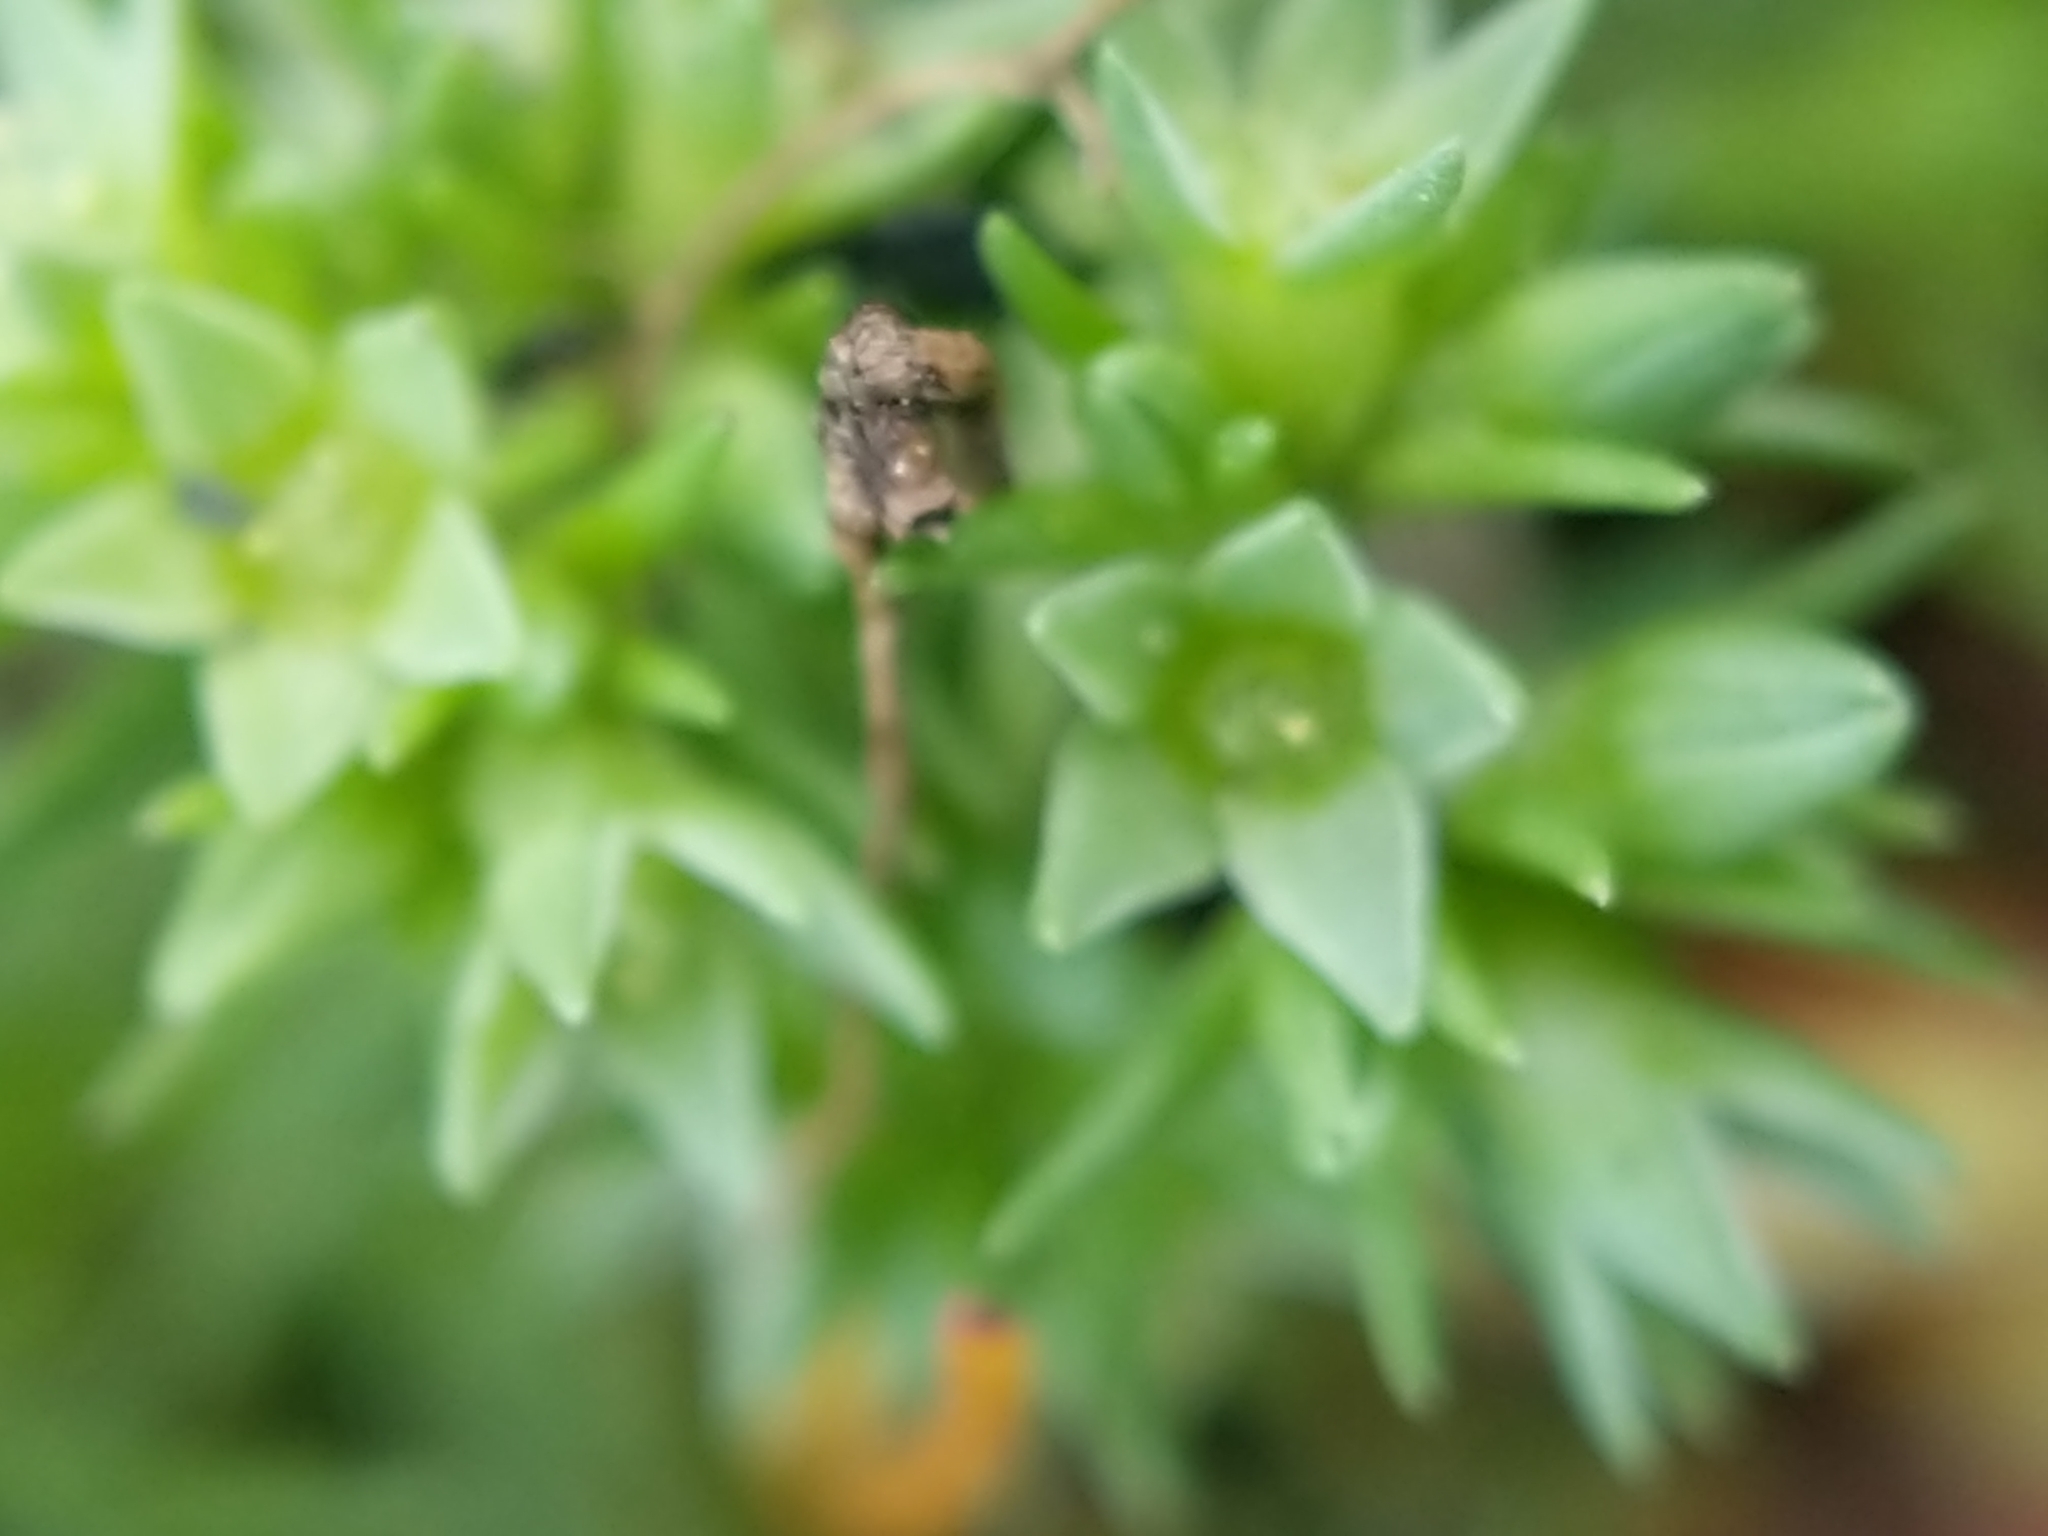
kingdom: Plantae
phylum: Tracheophyta
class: Magnoliopsida
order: Caryophyllales
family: Caryophyllaceae
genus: Scleranthus
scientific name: Scleranthus annuus
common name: Annual knawel
